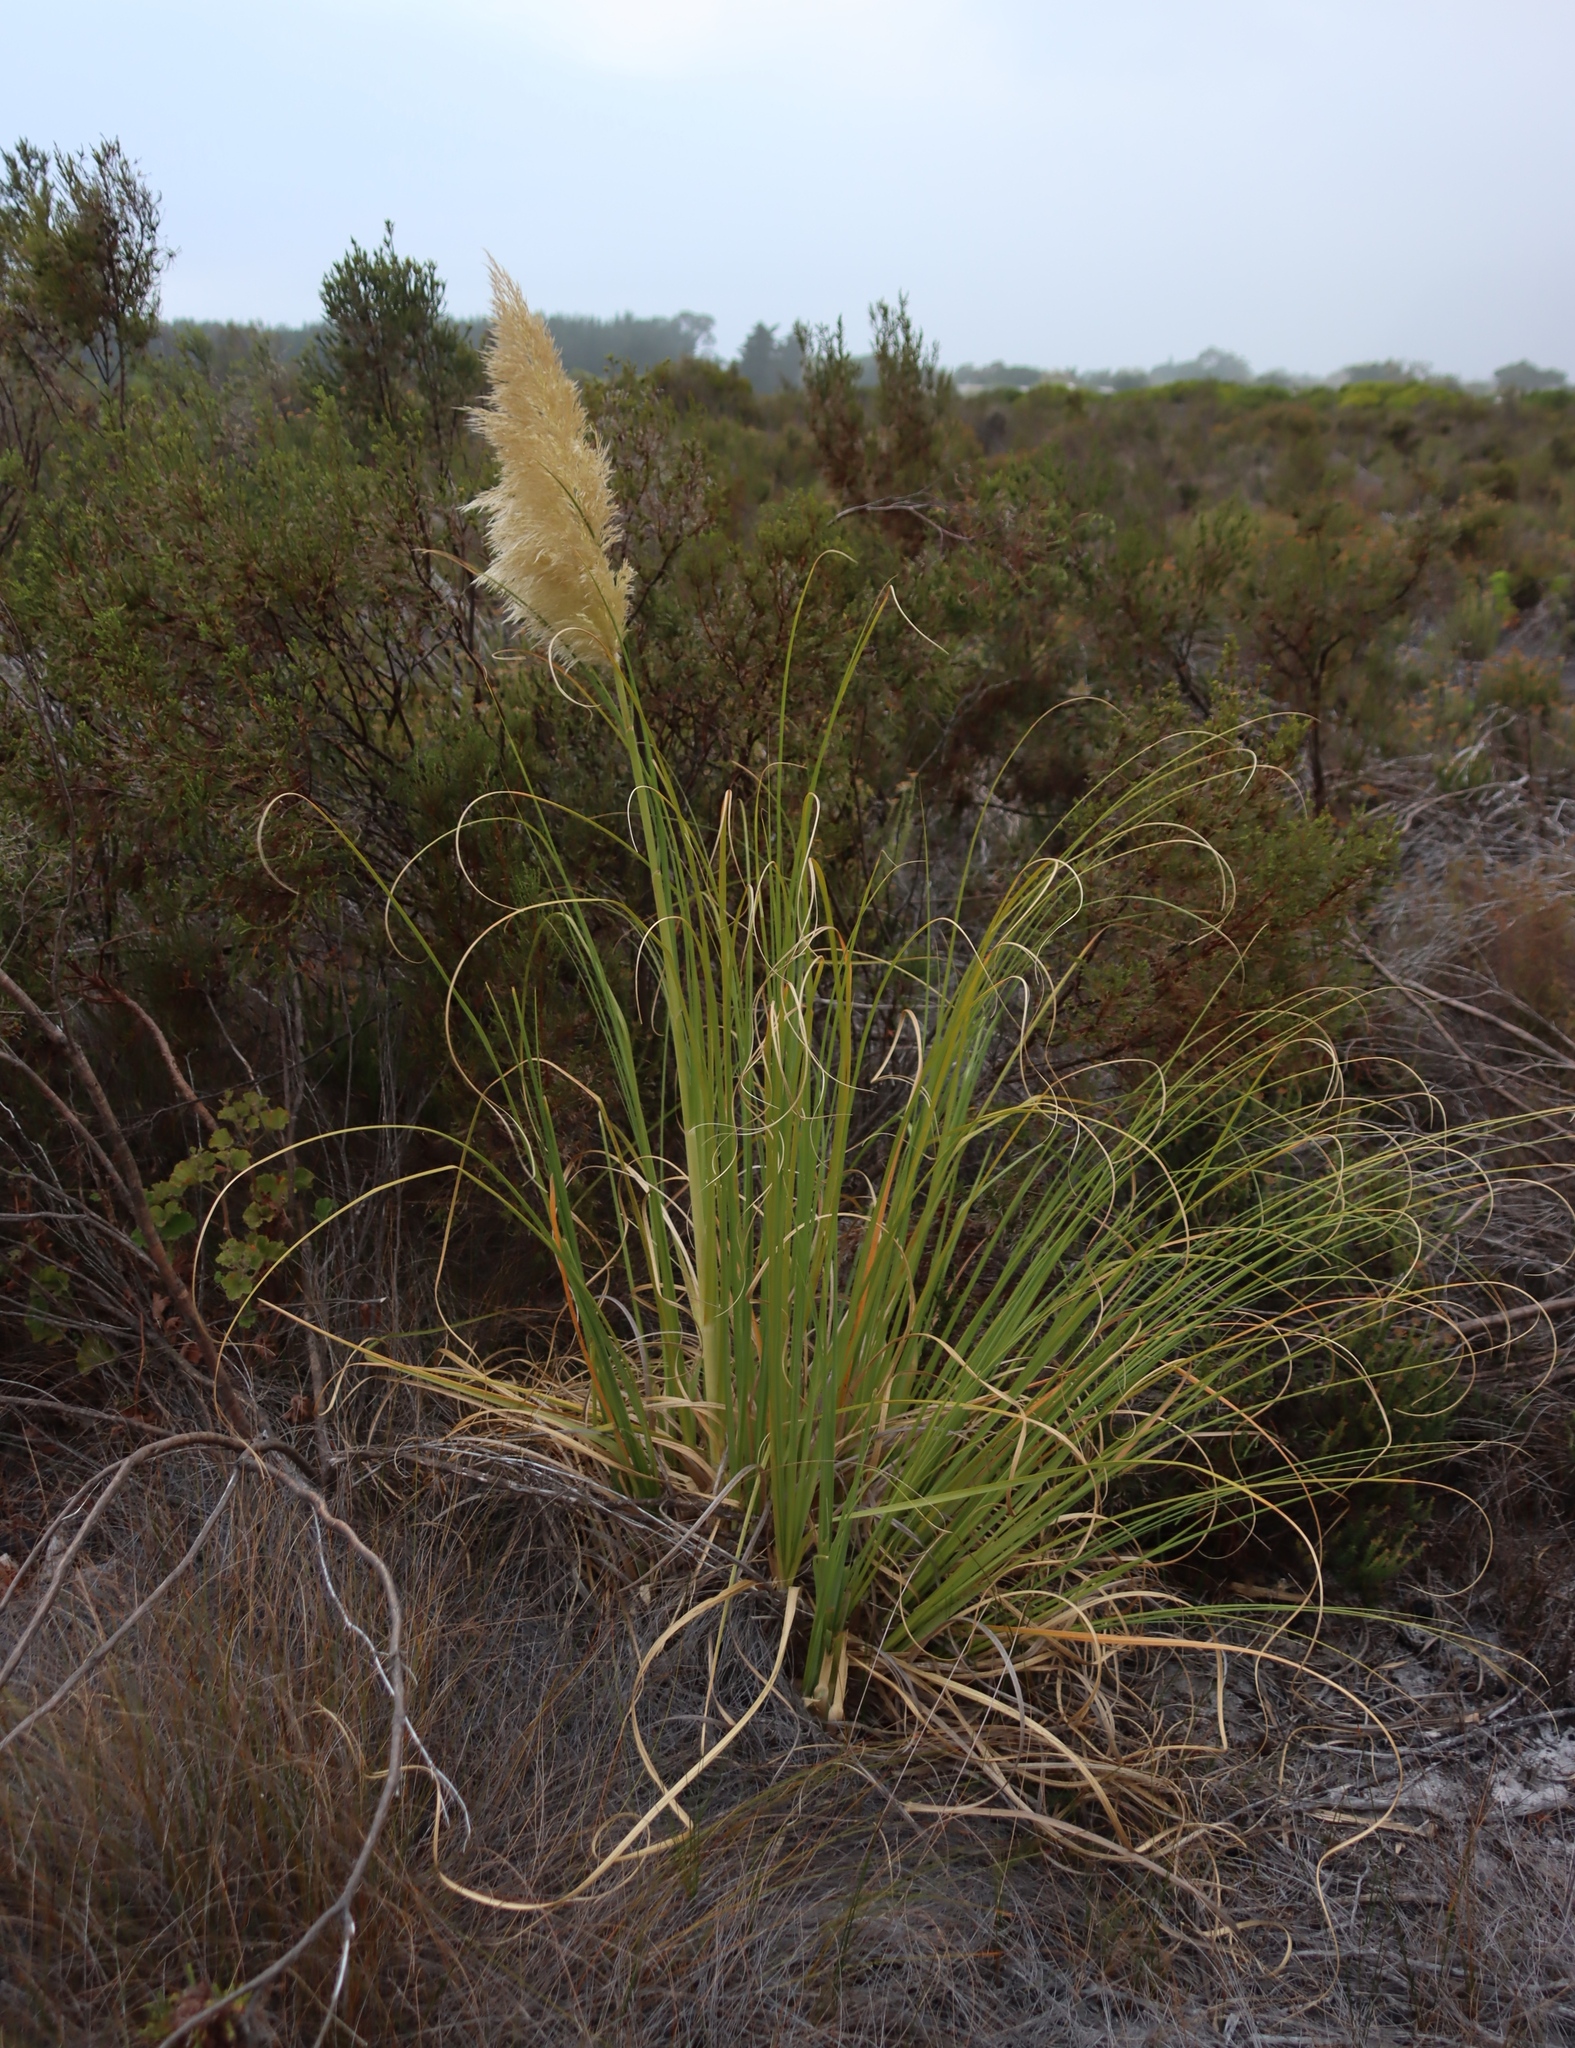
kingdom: Plantae
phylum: Tracheophyta
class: Liliopsida
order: Poales
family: Poaceae
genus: Cortaderia
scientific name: Cortaderia selloana
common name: Uruguayan pampas grass
